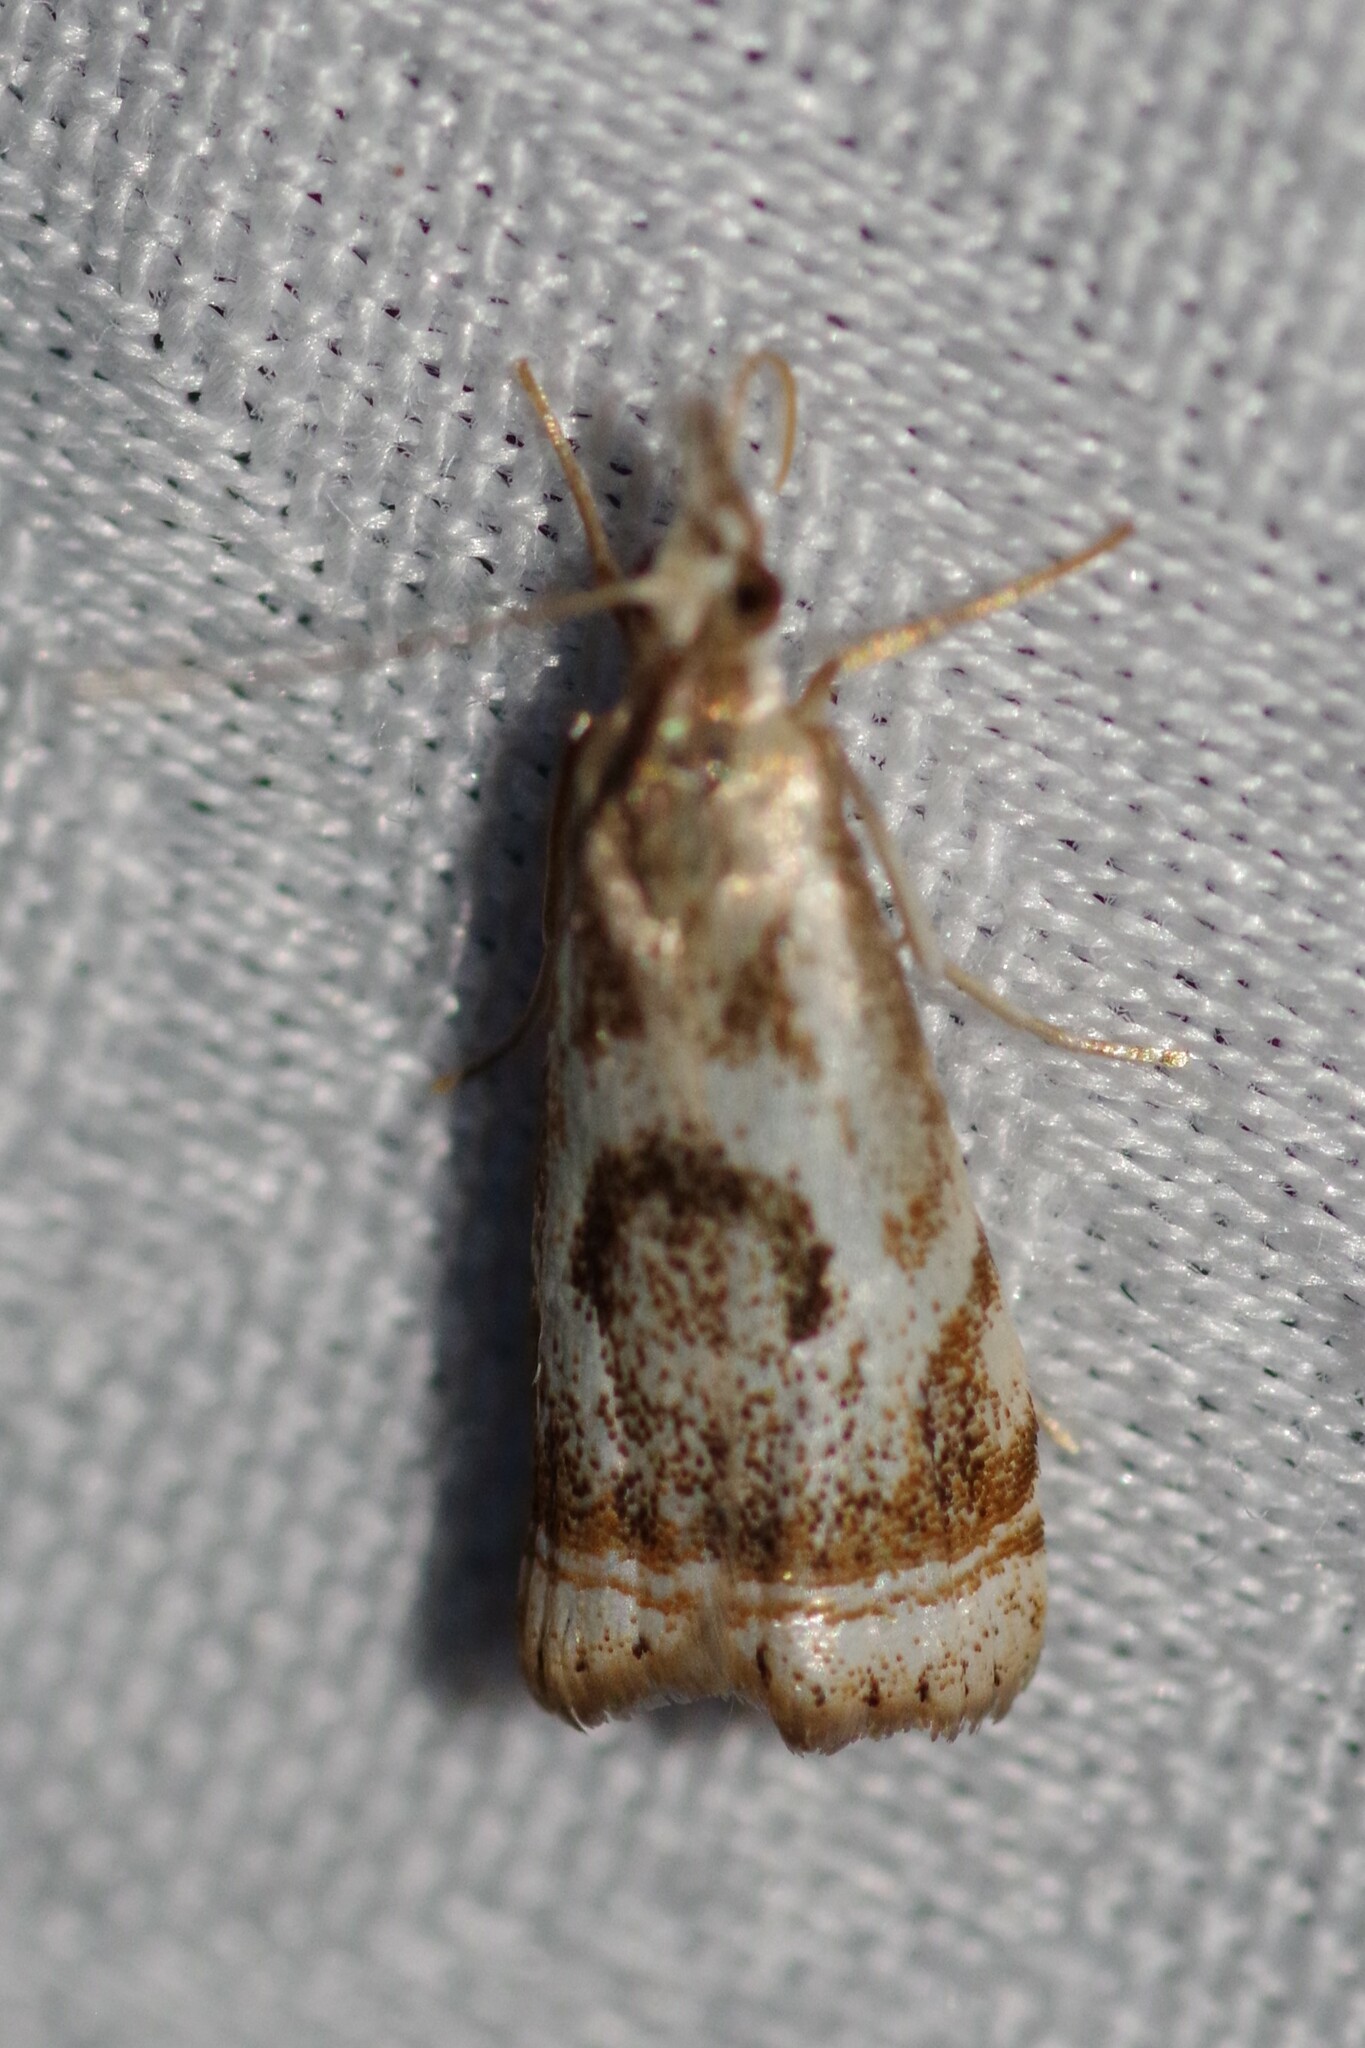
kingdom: Animalia
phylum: Arthropoda
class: Insecta
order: Lepidoptera
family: Crambidae
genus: Microcrambus
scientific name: Microcrambus elegans
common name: Elegant grass-veneer
